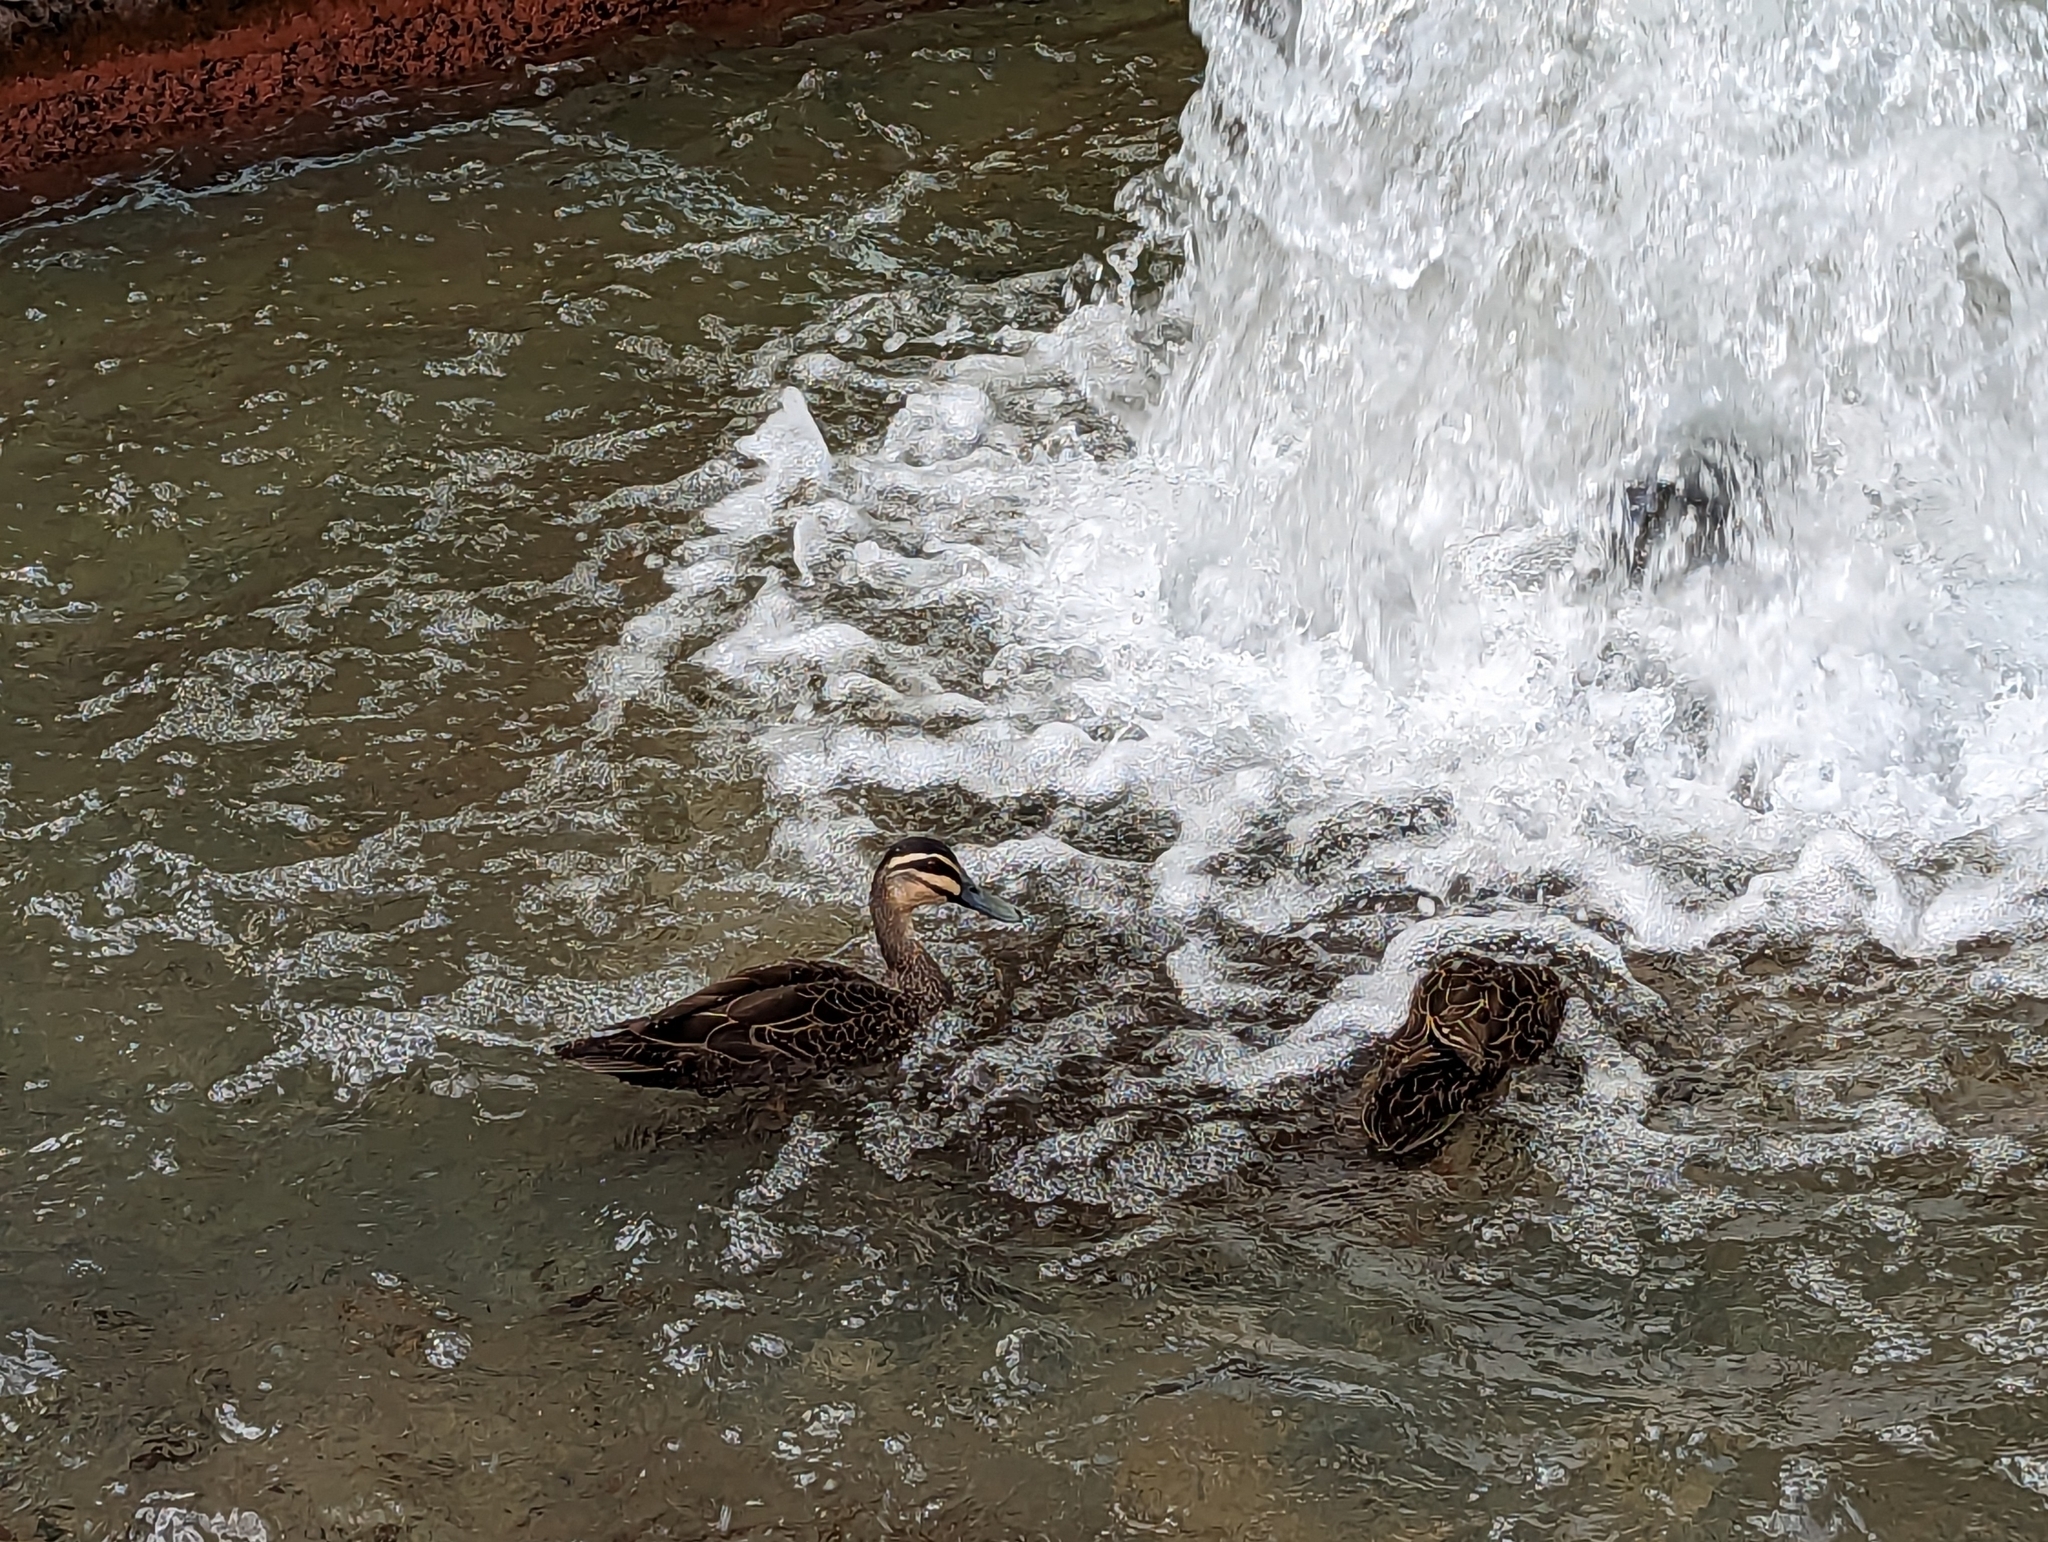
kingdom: Animalia
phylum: Chordata
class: Aves
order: Anseriformes
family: Anatidae
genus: Anas
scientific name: Anas superciliosa
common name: Pacific black duck
